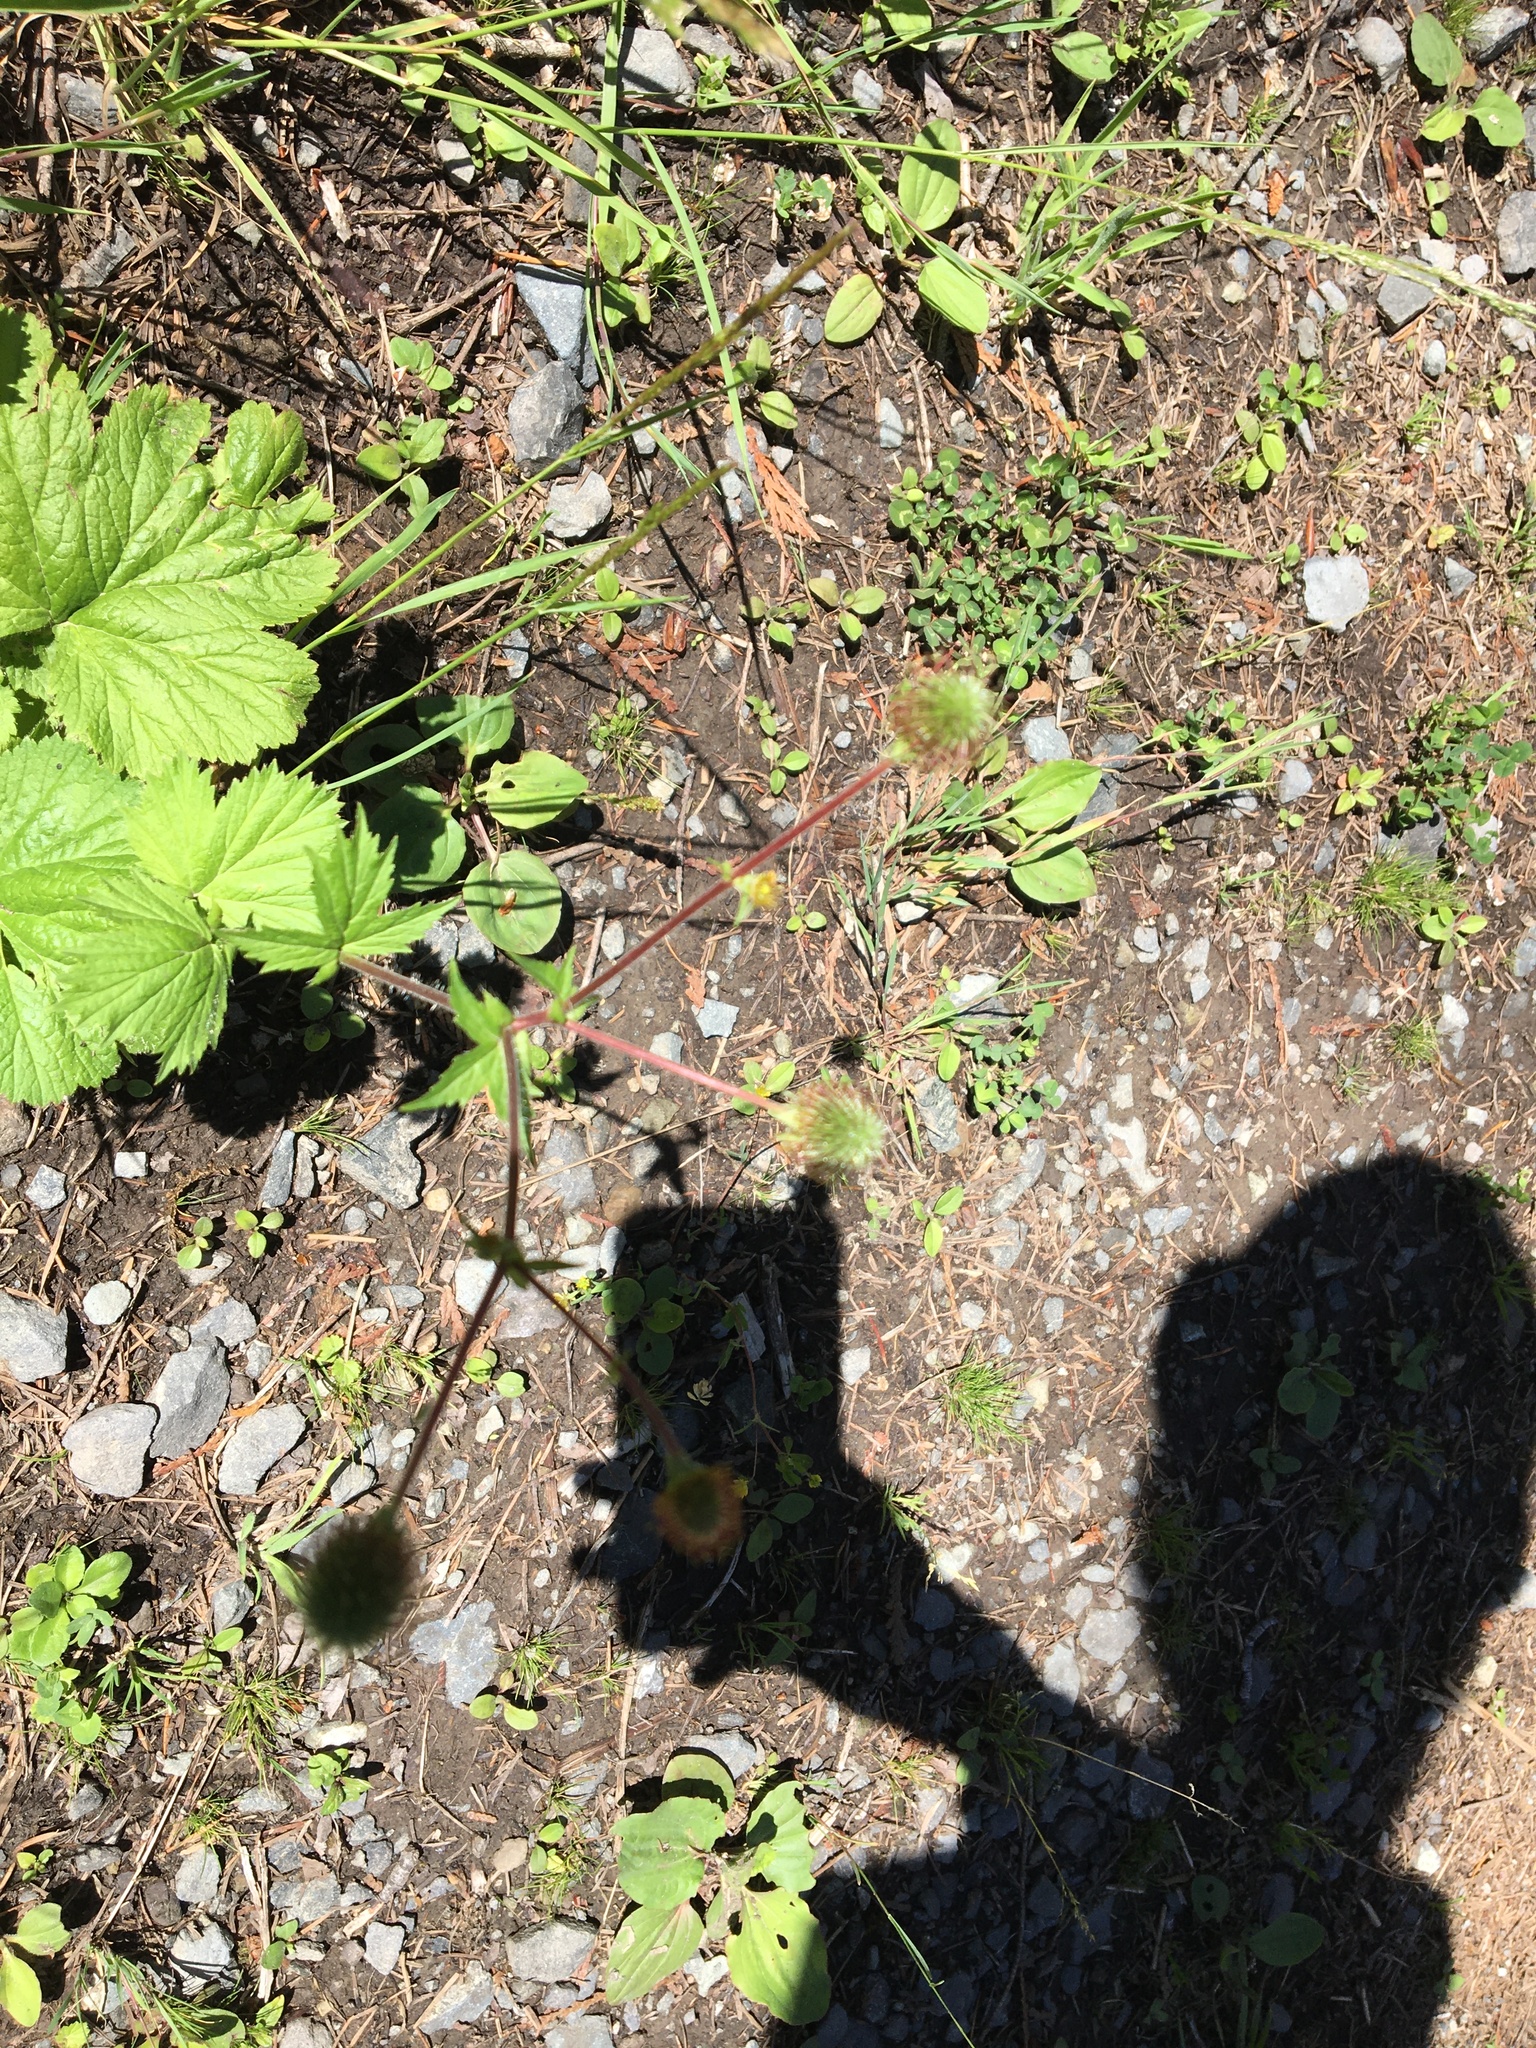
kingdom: Plantae
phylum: Tracheophyta
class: Magnoliopsida
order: Rosales
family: Rosaceae
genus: Geum
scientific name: Geum macrophyllum
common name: Large-leaved avens
